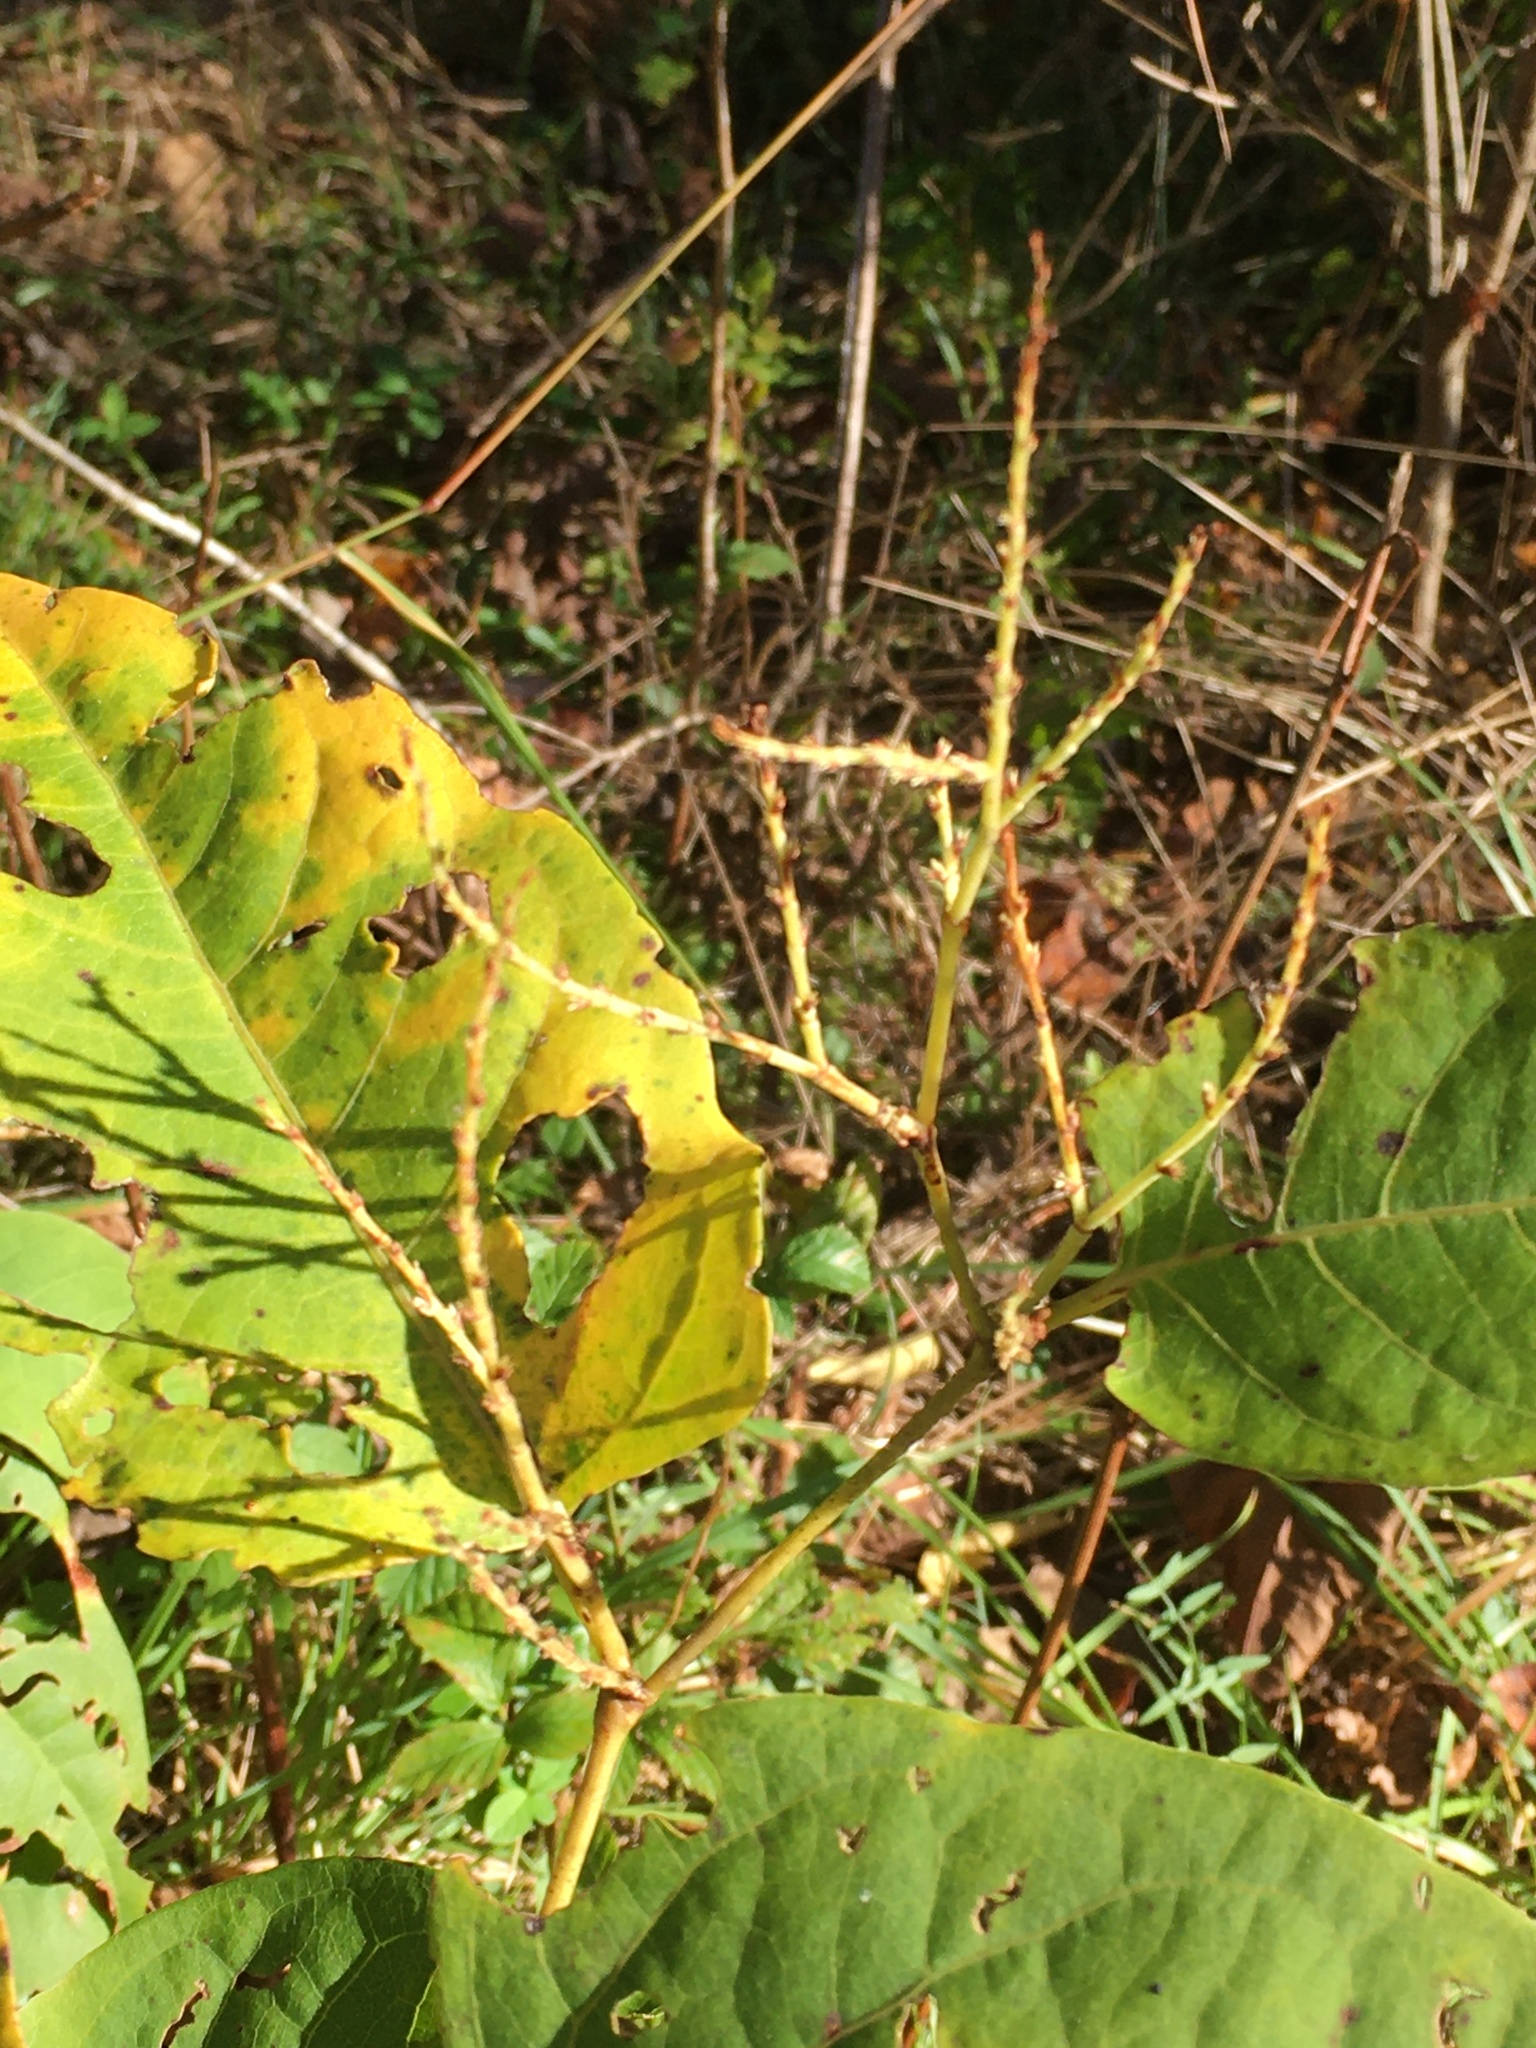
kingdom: Plantae
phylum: Tracheophyta
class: Magnoliopsida
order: Caryophyllales
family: Polygonaceae
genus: Reynoutria
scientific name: Reynoutria japonica
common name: Japanese knotweed
